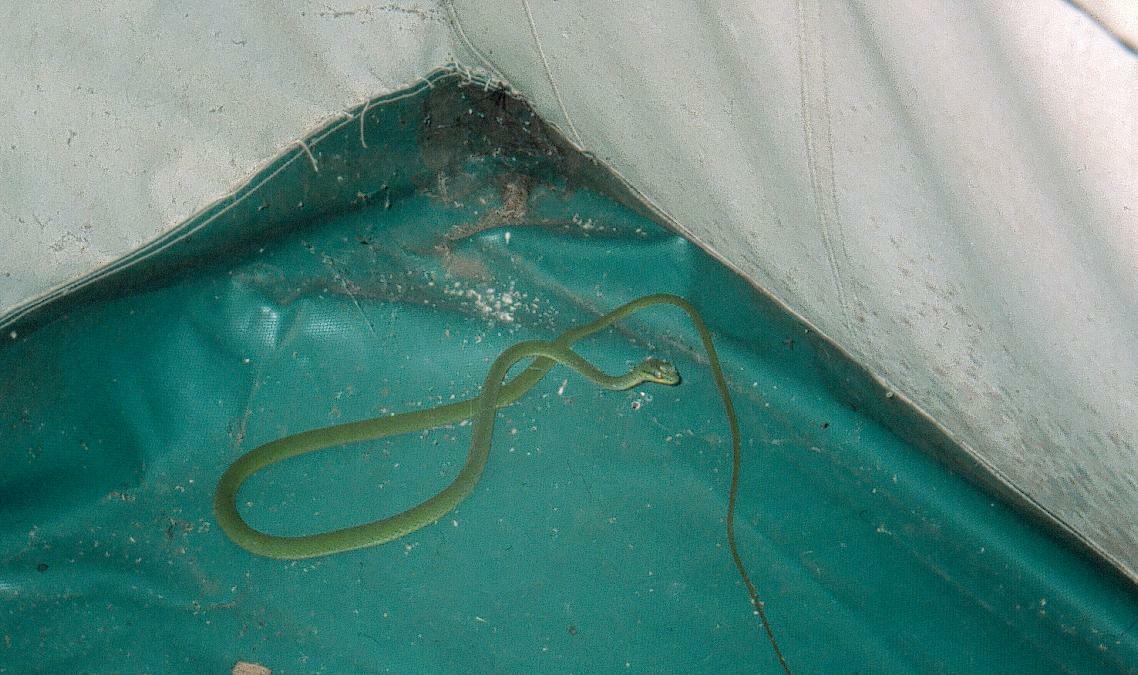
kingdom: Animalia
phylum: Chordata
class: Squamata
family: Colubridae
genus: Hapsidophrys
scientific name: Hapsidophrys smaragdinus
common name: Emerald snake
